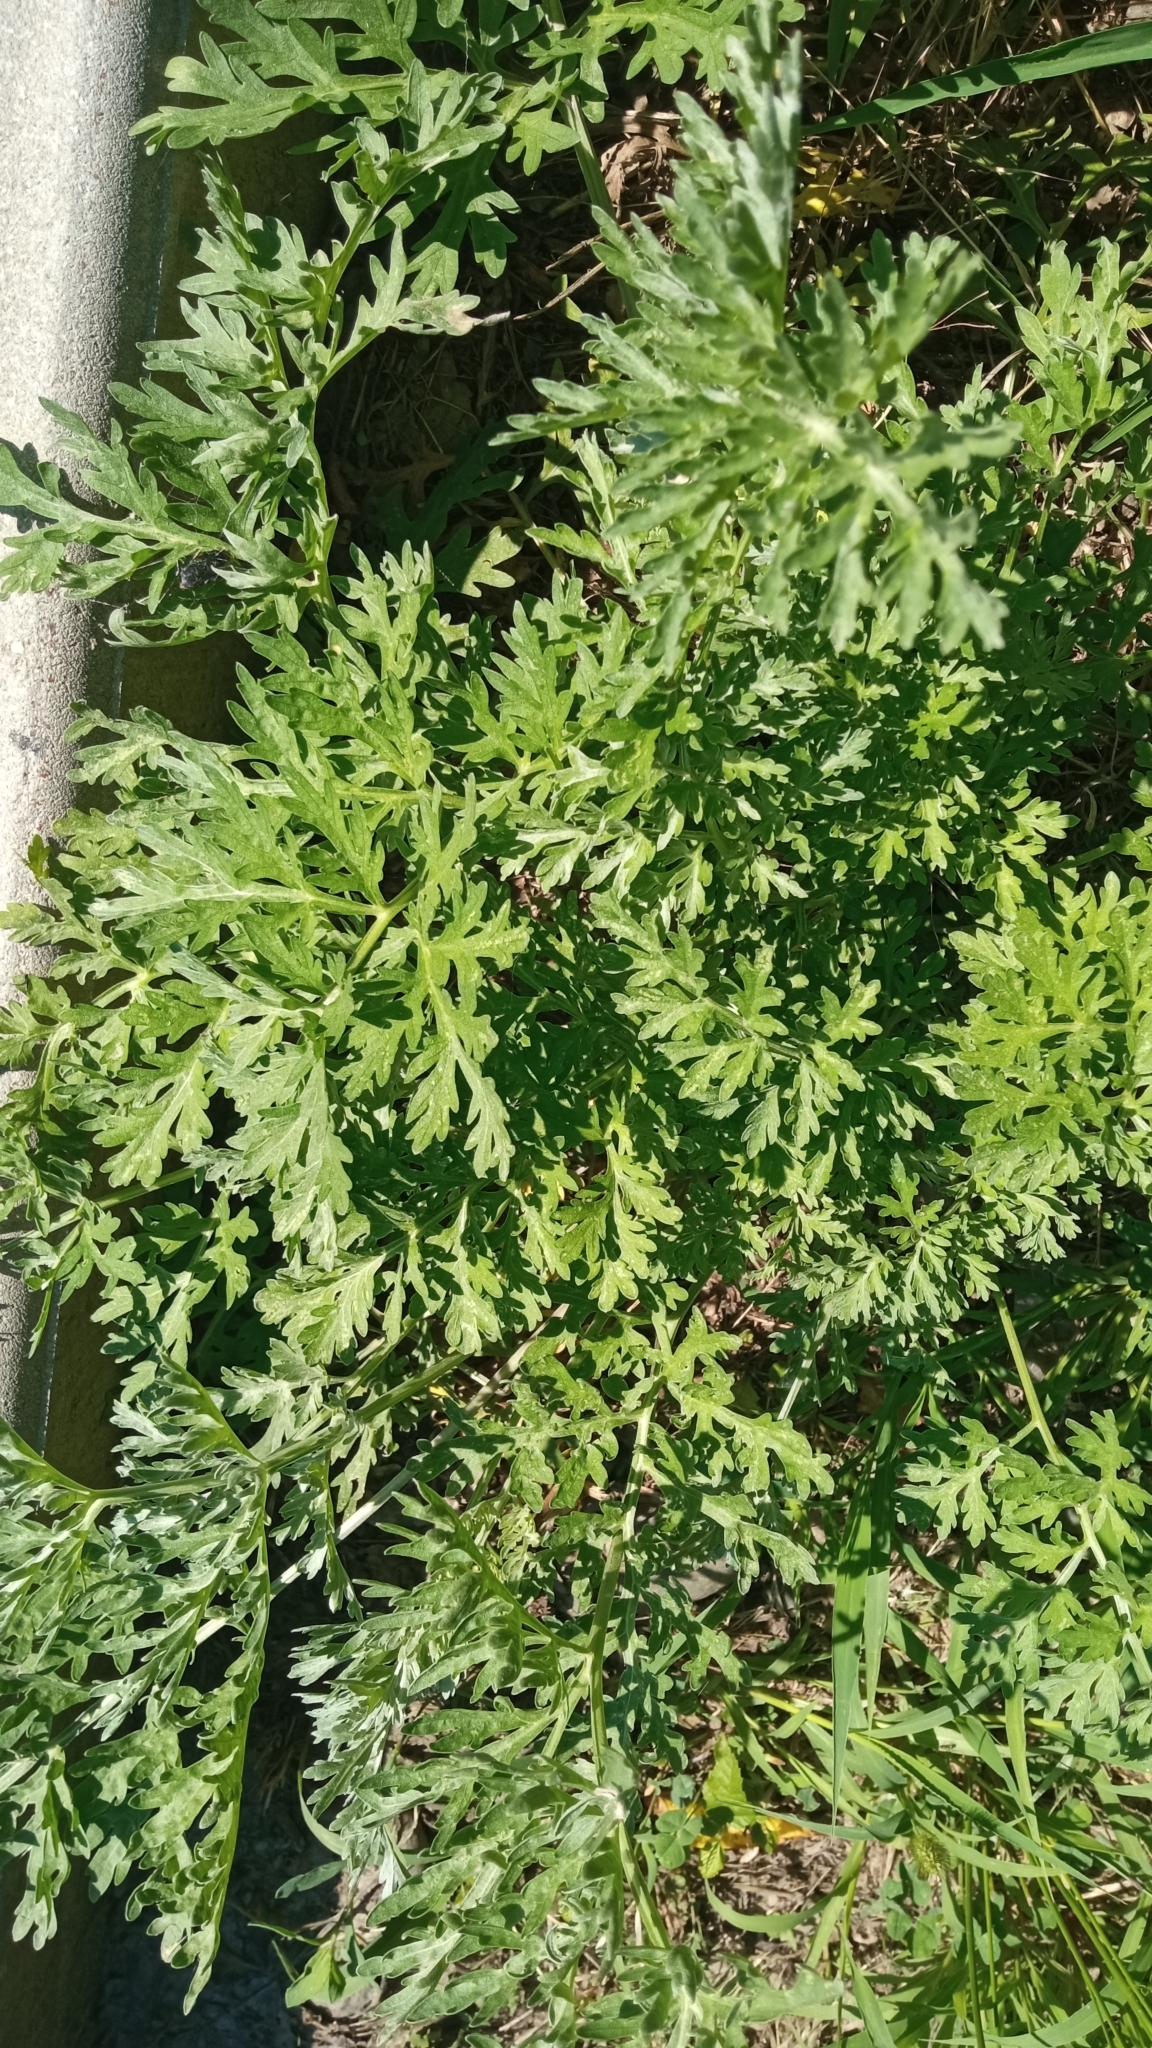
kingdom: Plantae
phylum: Tracheophyta
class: Magnoliopsida
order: Asterales
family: Asteraceae
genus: Artemisia
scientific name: Artemisia absinthium
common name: Wormwood
